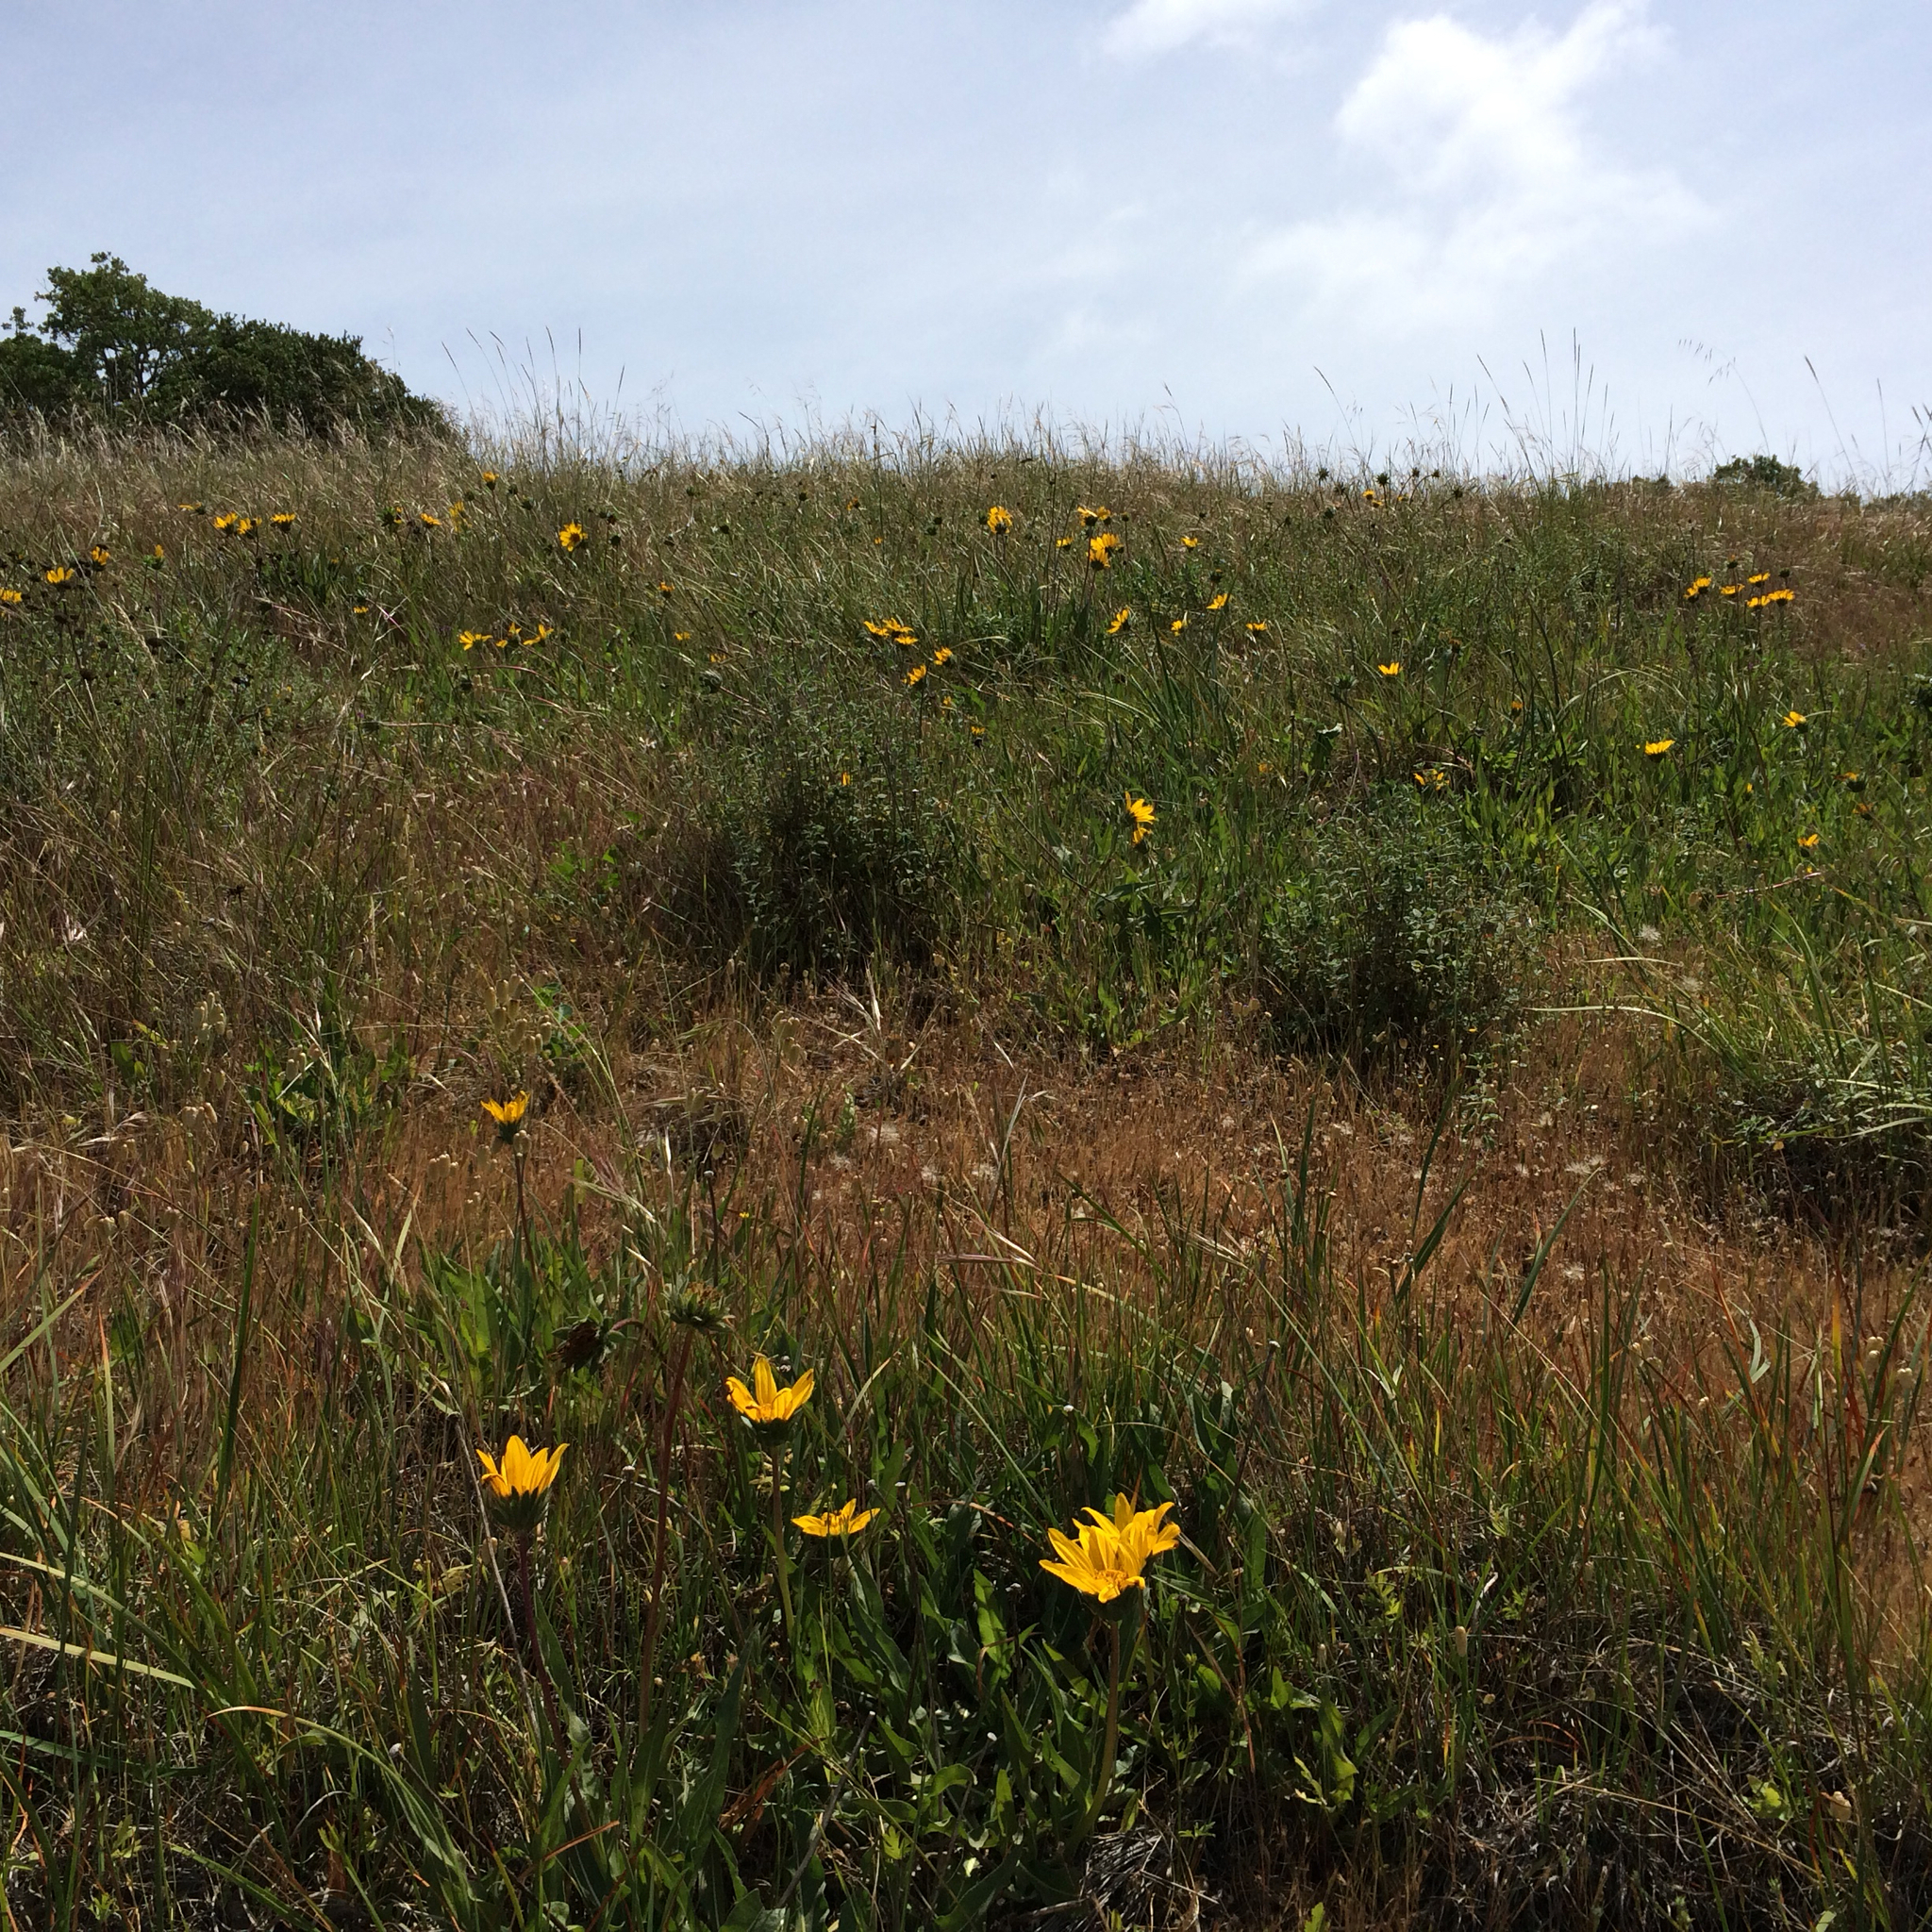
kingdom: Plantae
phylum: Tracheophyta
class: Magnoliopsida
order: Asterales
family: Asteraceae
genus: Wyethia
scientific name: Wyethia angustifolia
